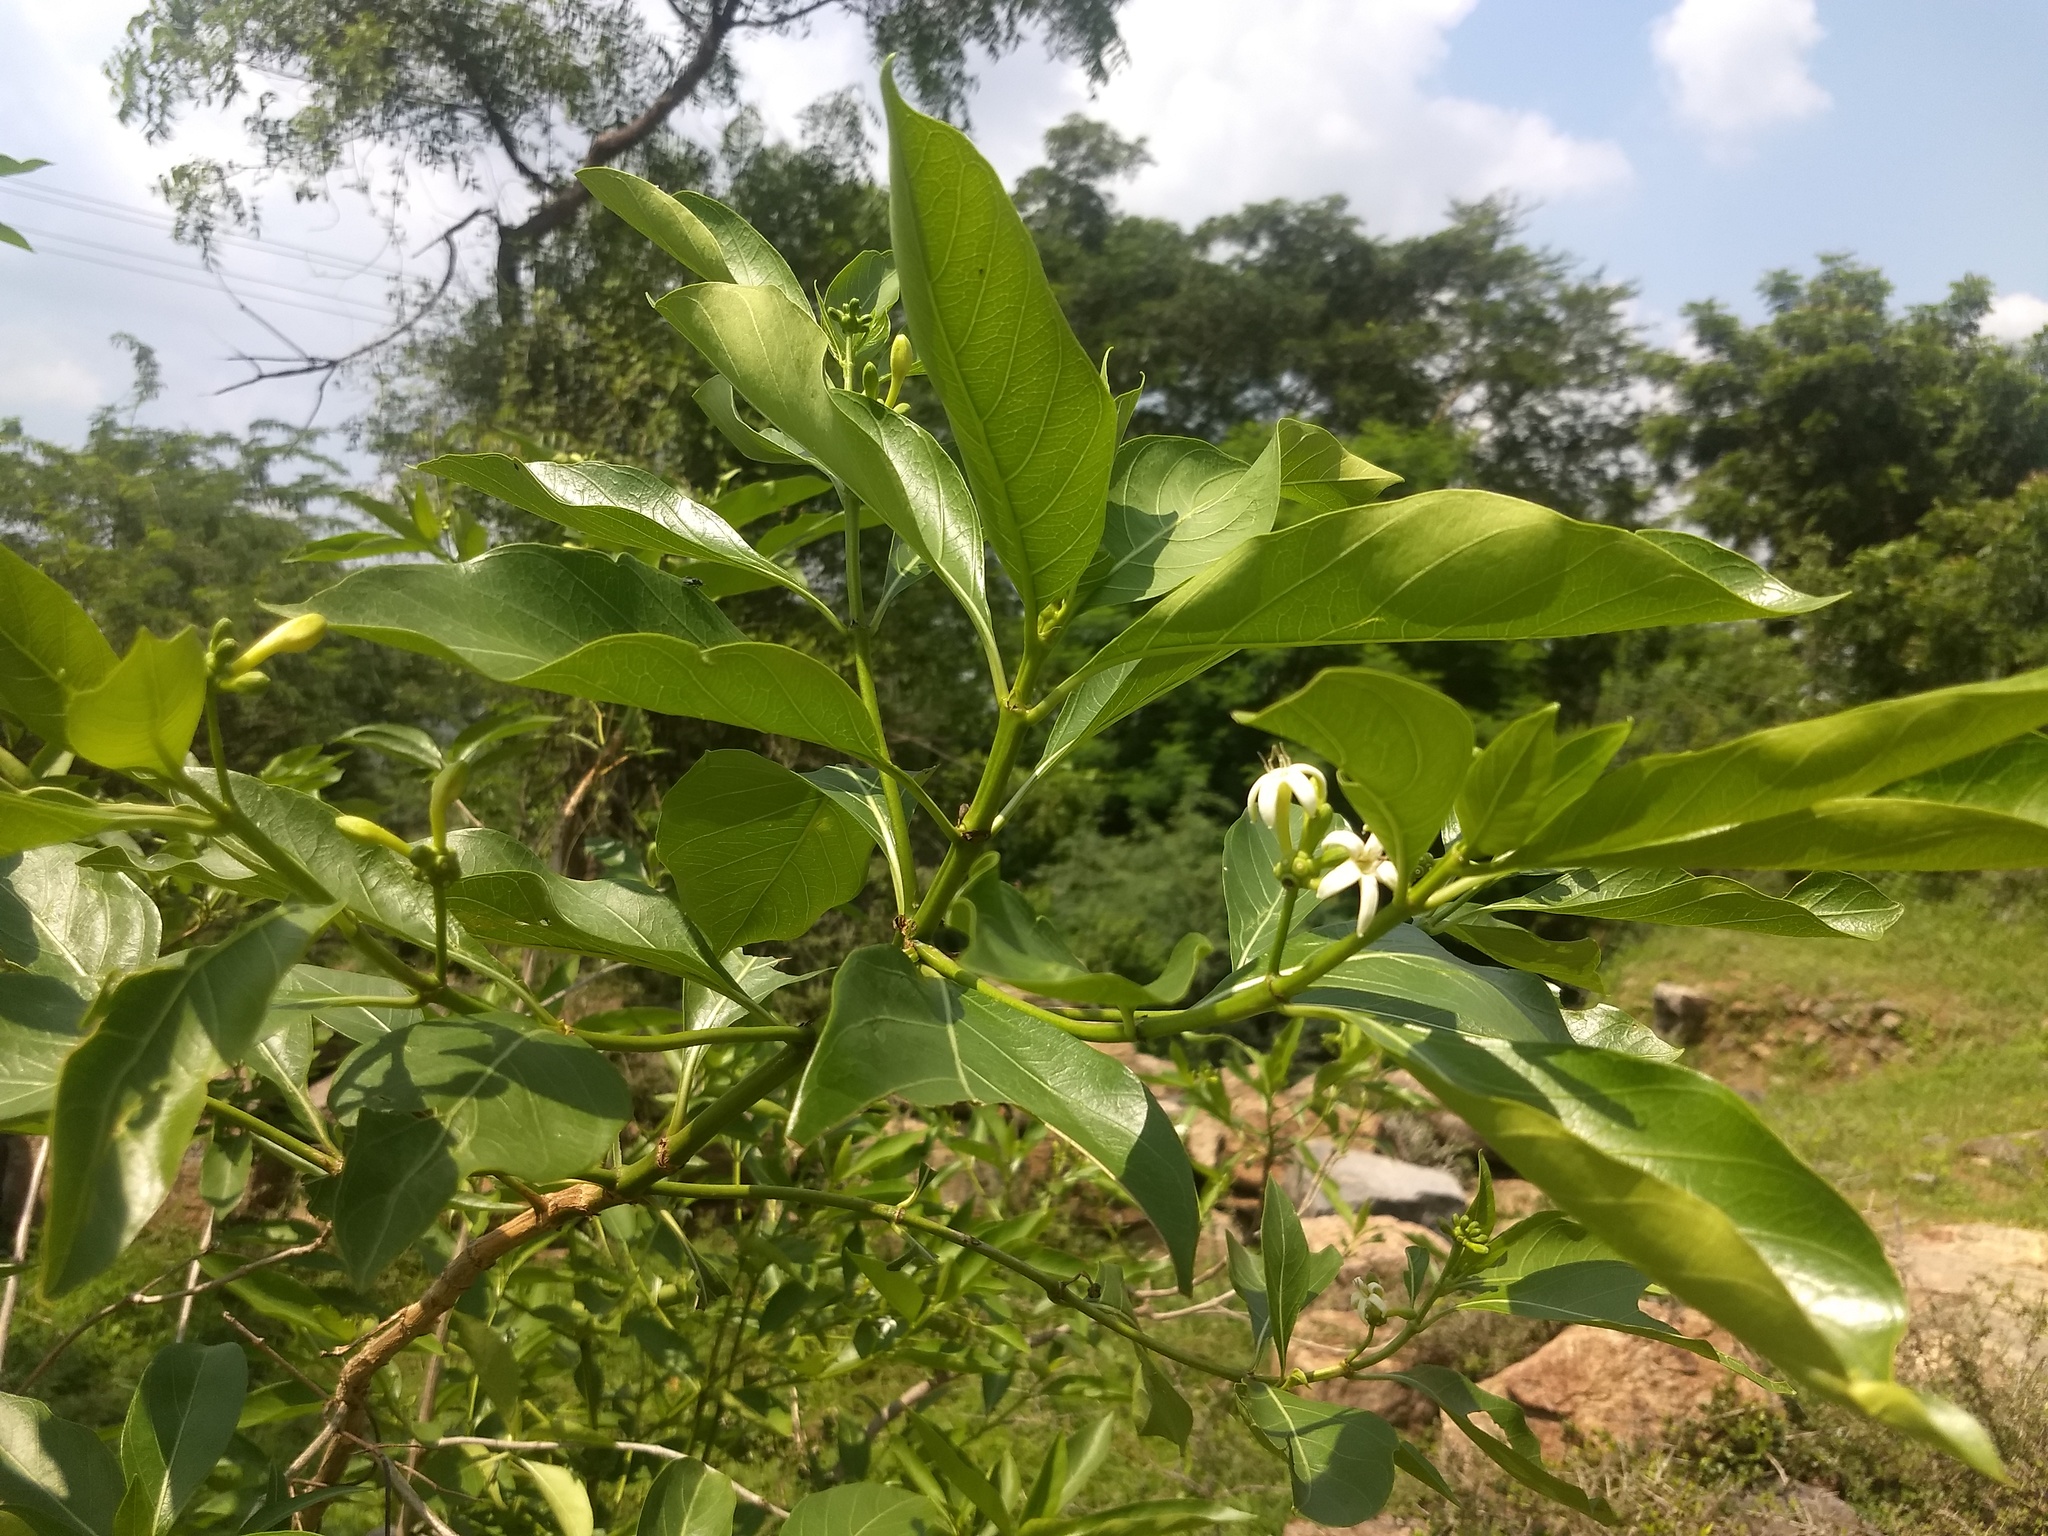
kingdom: Plantae
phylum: Tracheophyta
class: Magnoliopsida
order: Gentianales
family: Rubiaceae
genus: Morinda
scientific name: Morinda coreia
